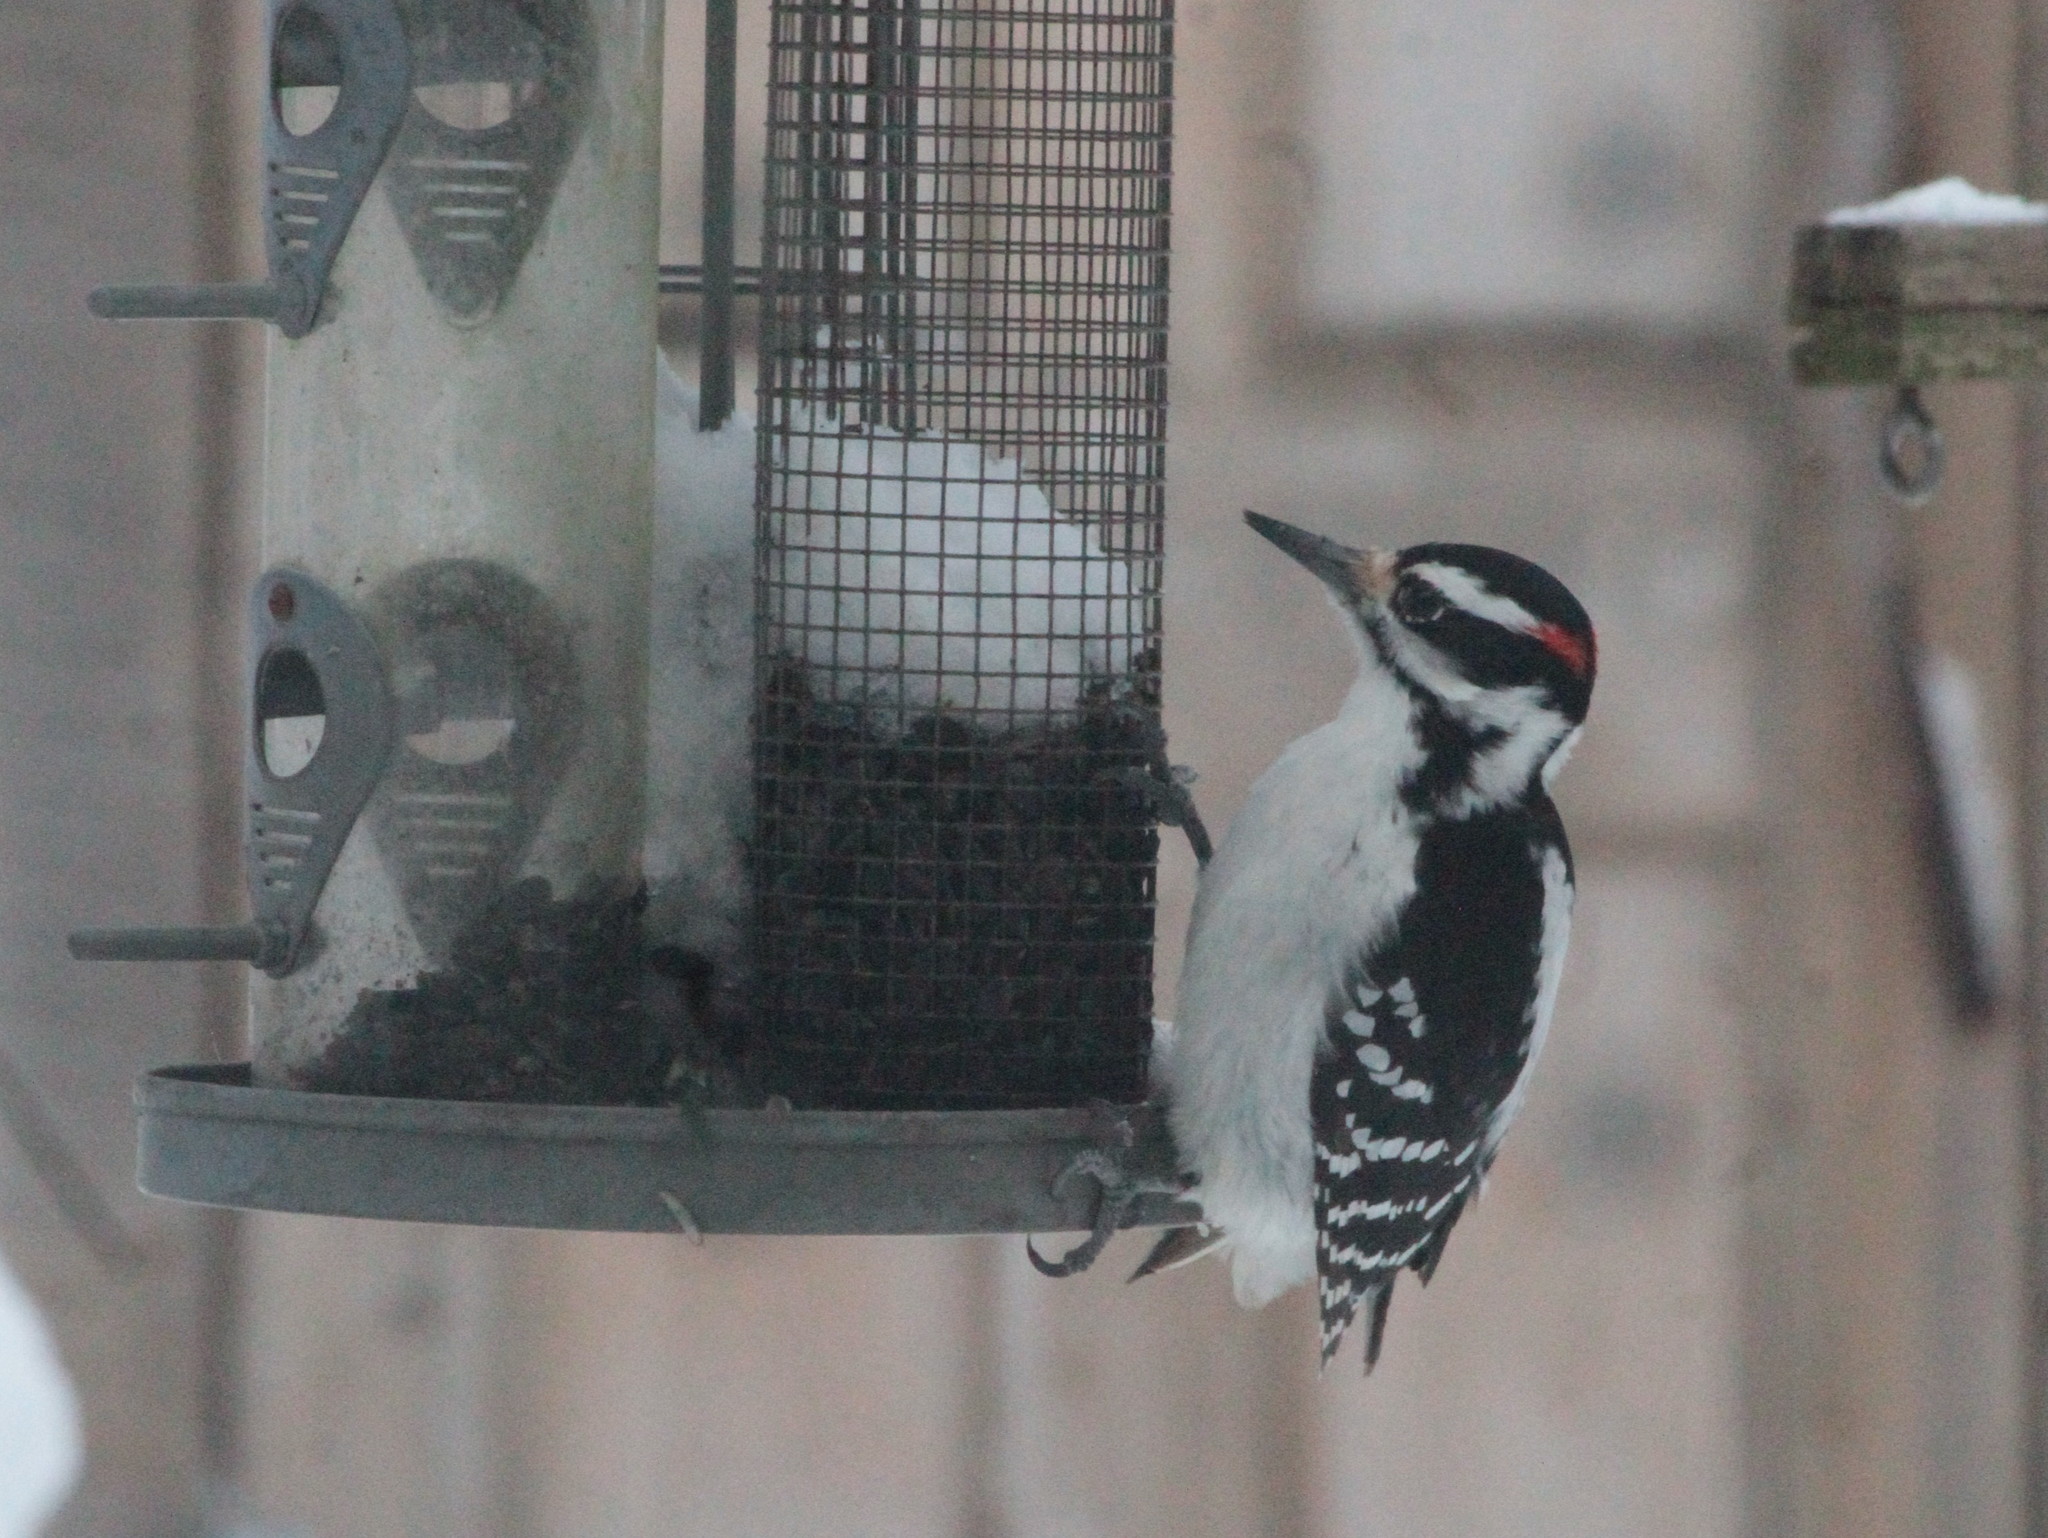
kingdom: Animalia
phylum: Chordata
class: Aves
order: Piciformes
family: Picidae
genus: Leuconotopicus
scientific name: Leuconotopicus villosus
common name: Hairy woodpecker
